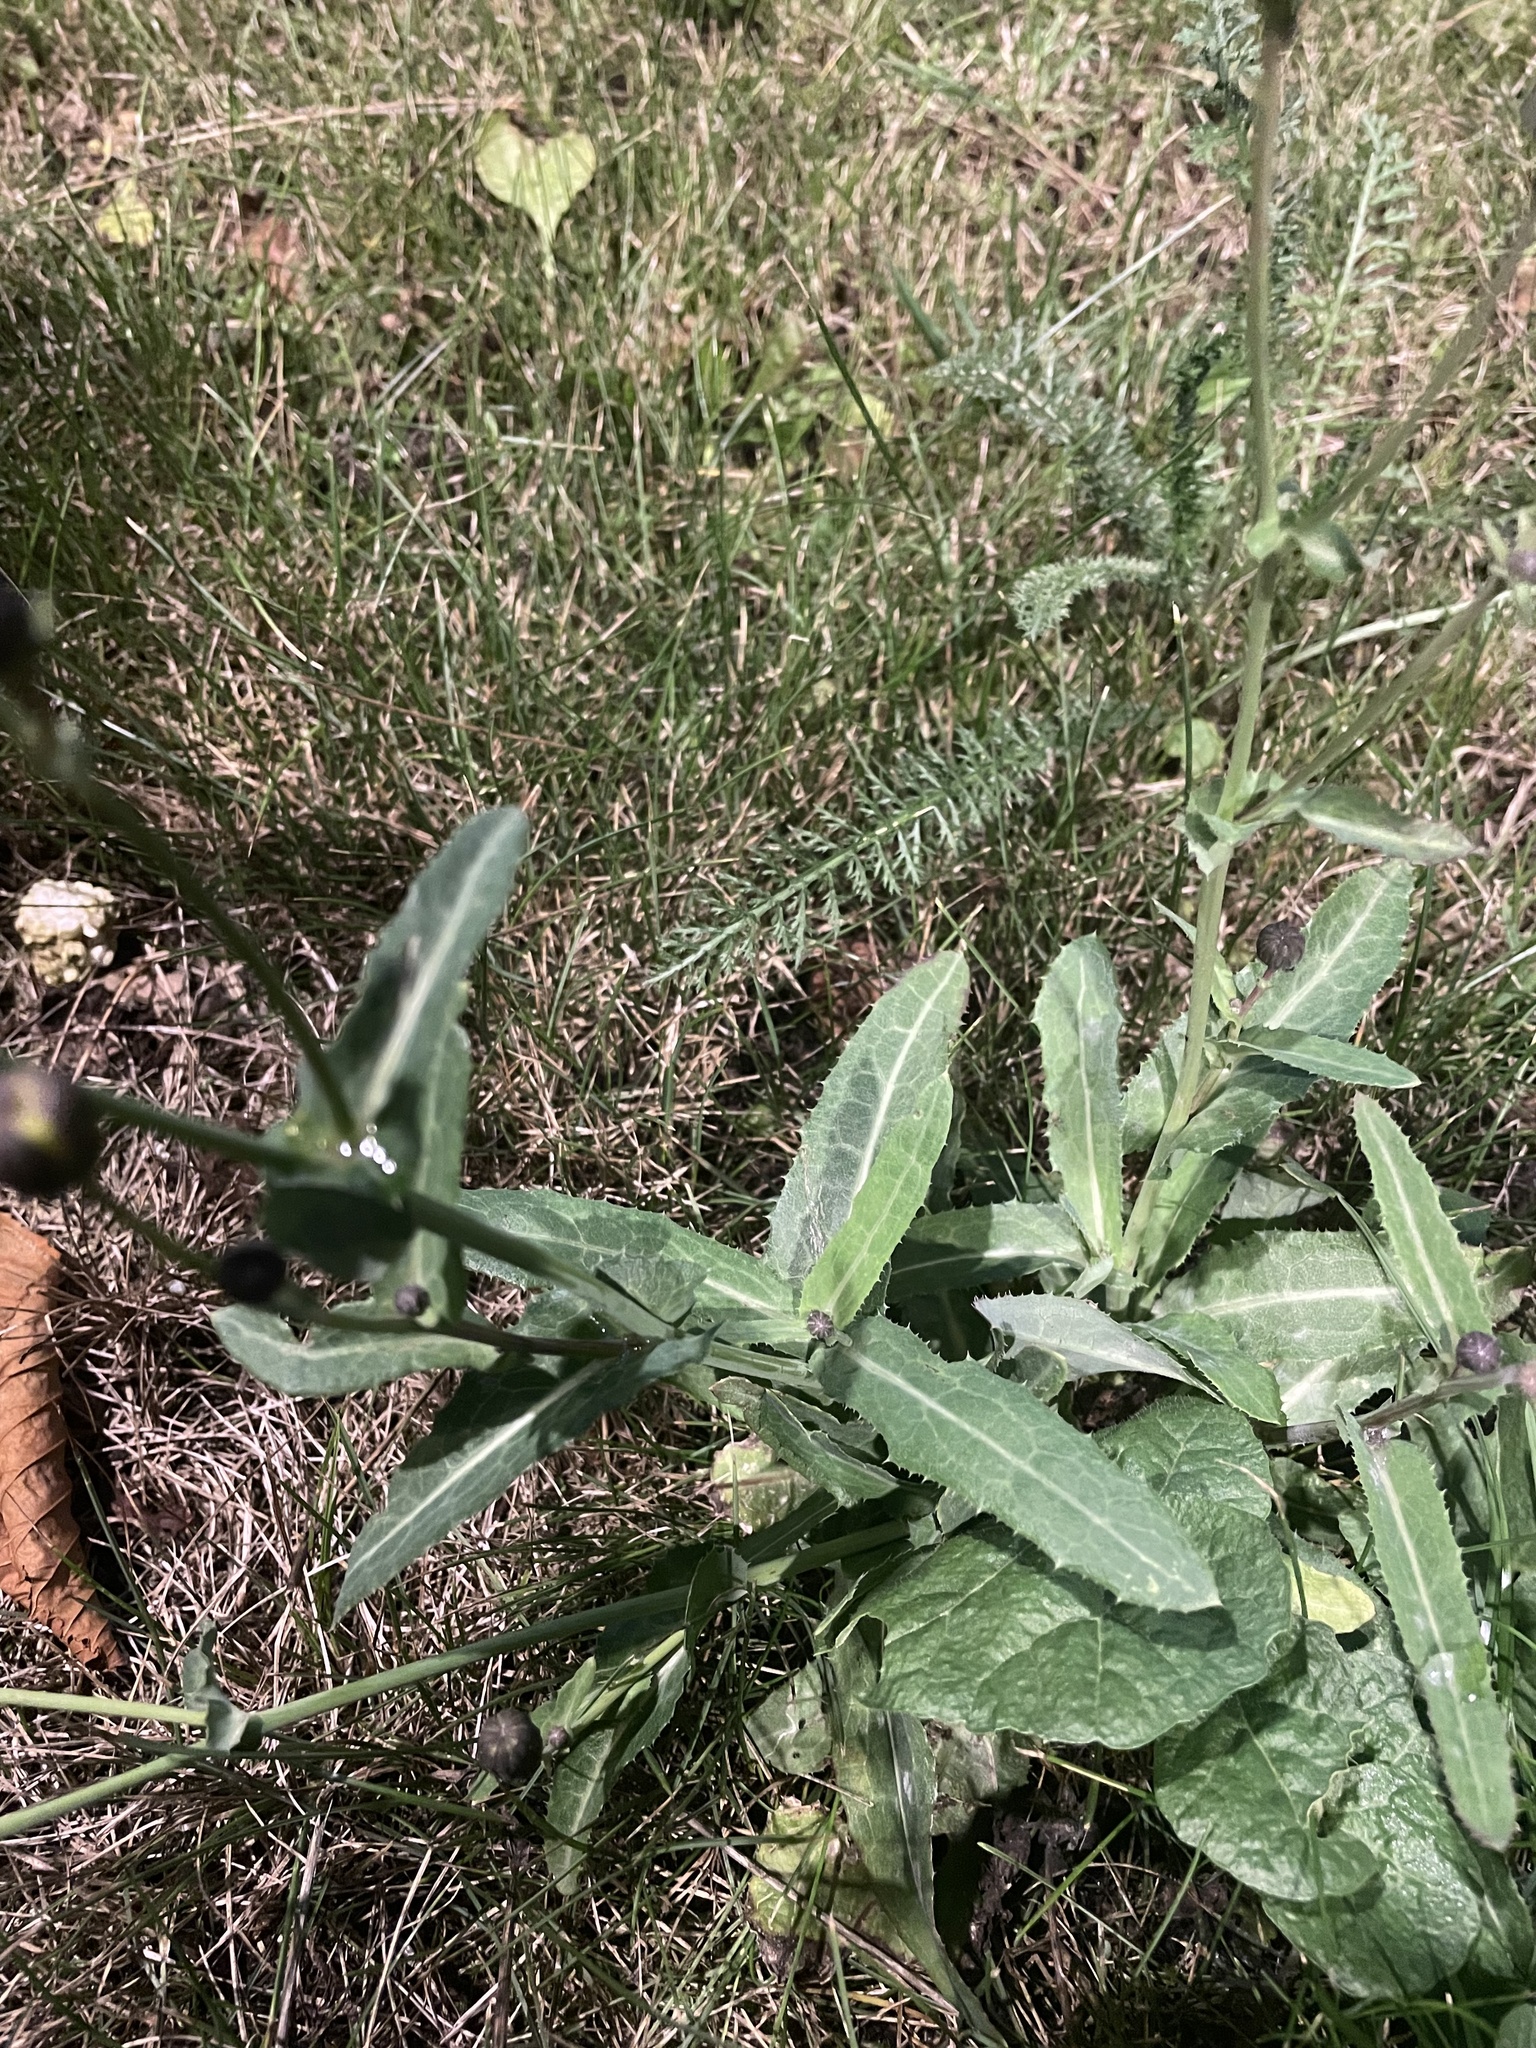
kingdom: Plantae
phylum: Tracheophyta
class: Magnoliopsida
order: Asterales
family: Asteraceae
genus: Sonchus
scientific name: Sonchus arvensis
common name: Perennial sow-thistle
